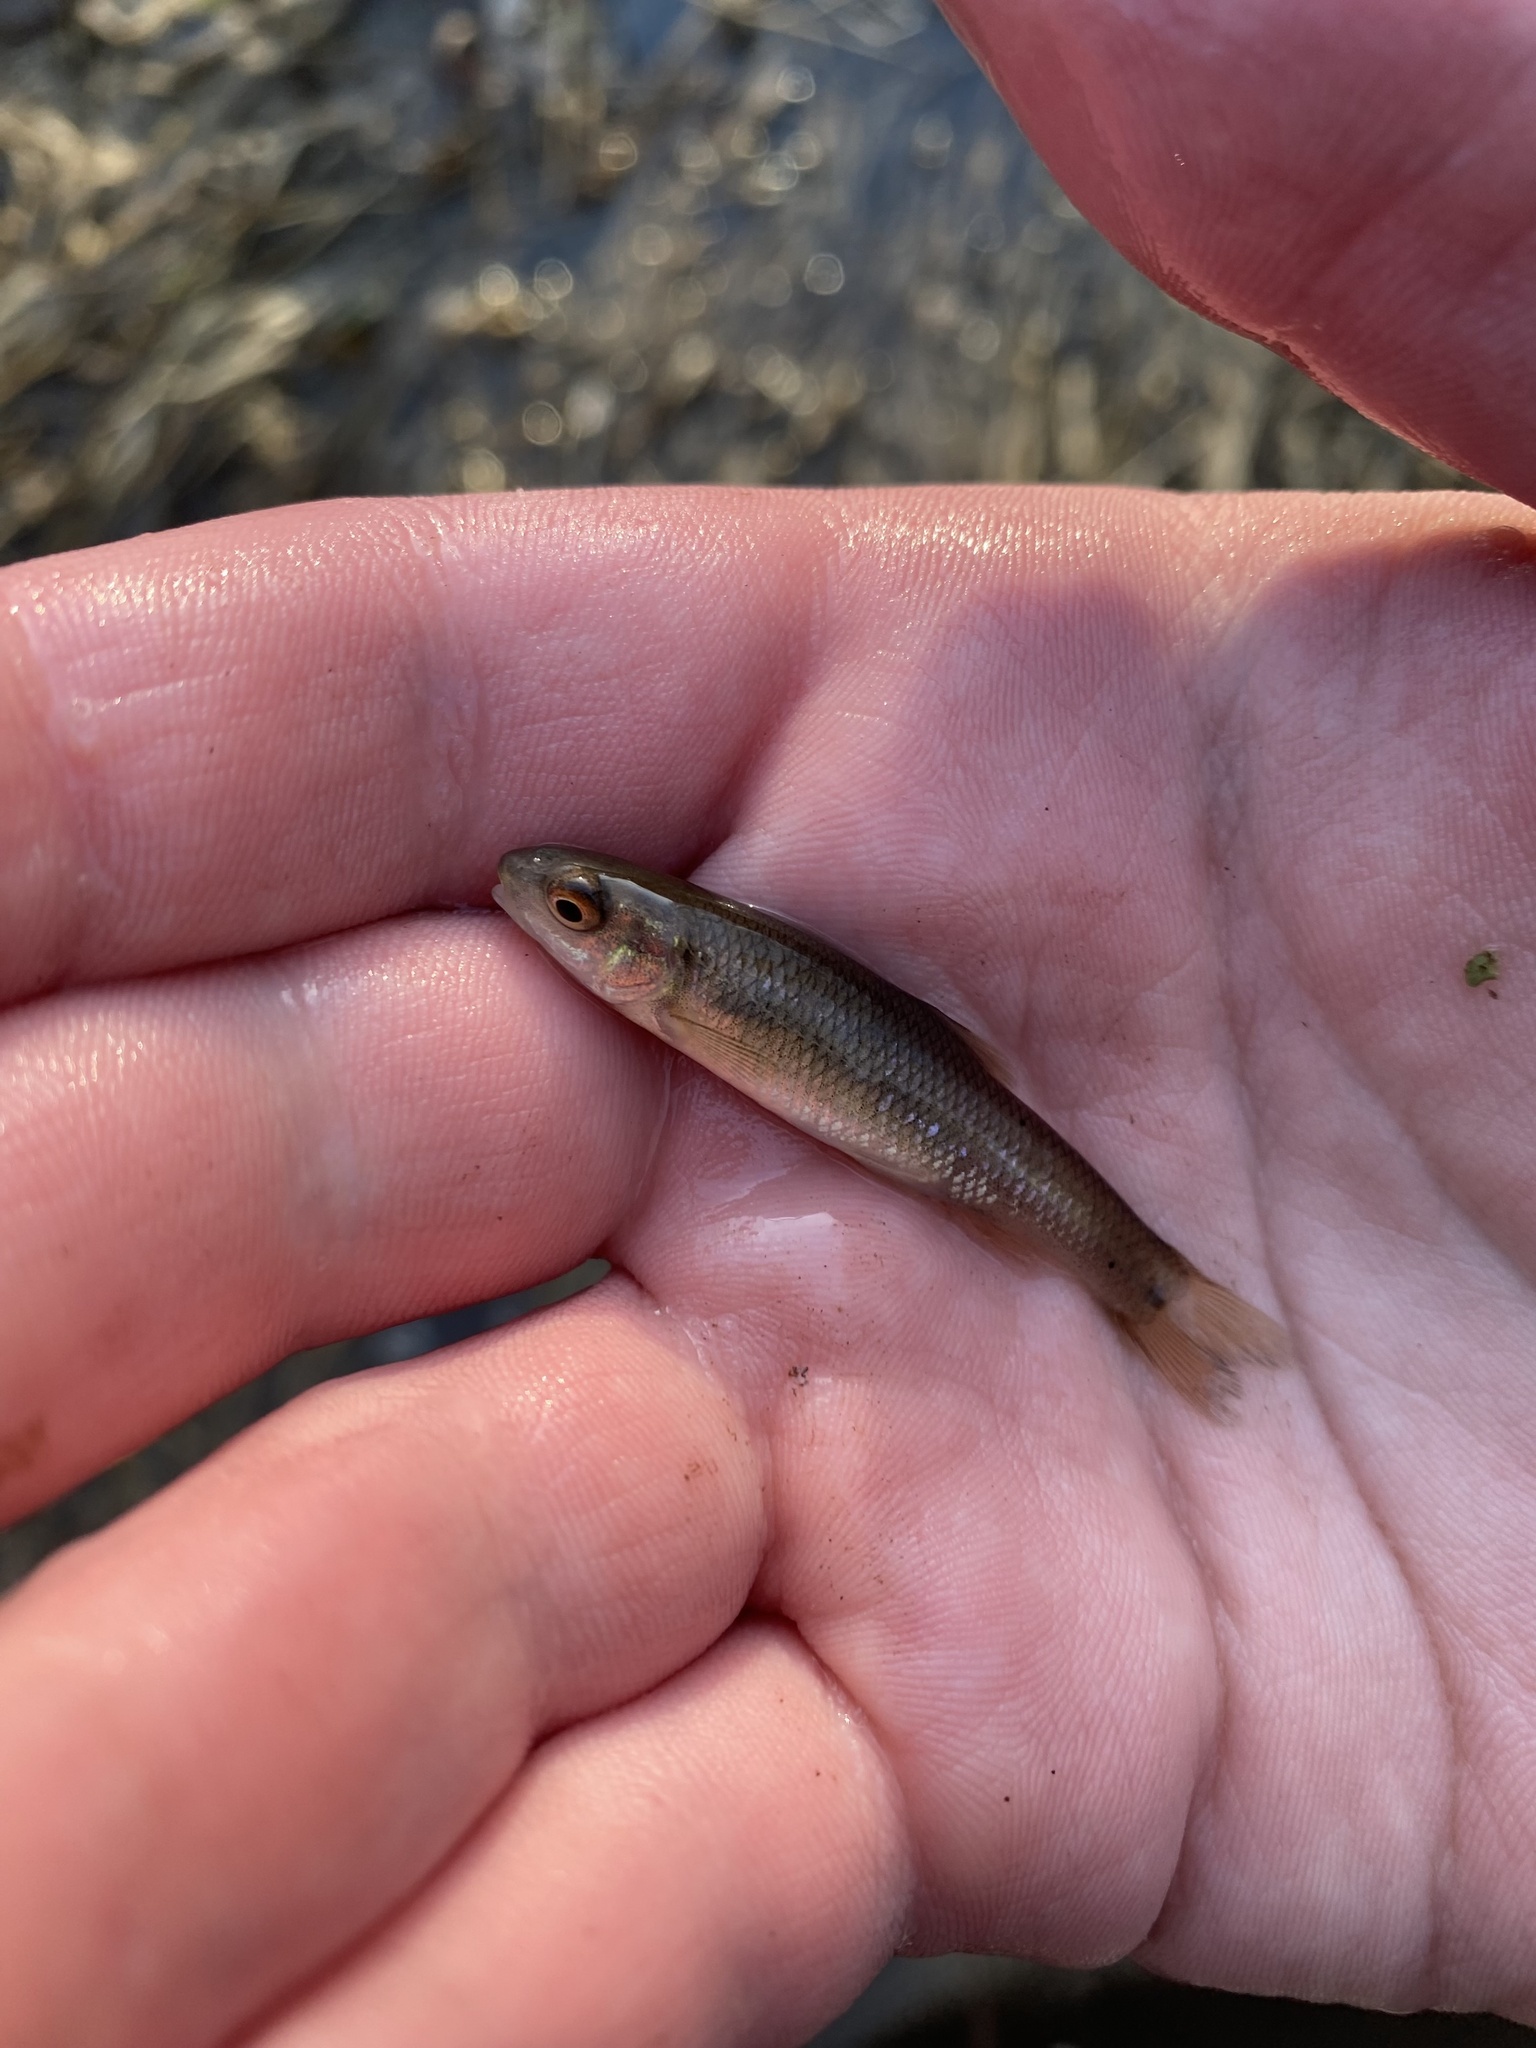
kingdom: Animalia
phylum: Chordata
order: Cypriniformes
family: Cyprinidae
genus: Nocomis
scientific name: Nocomis biguttatus
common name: Hornyhead chub
